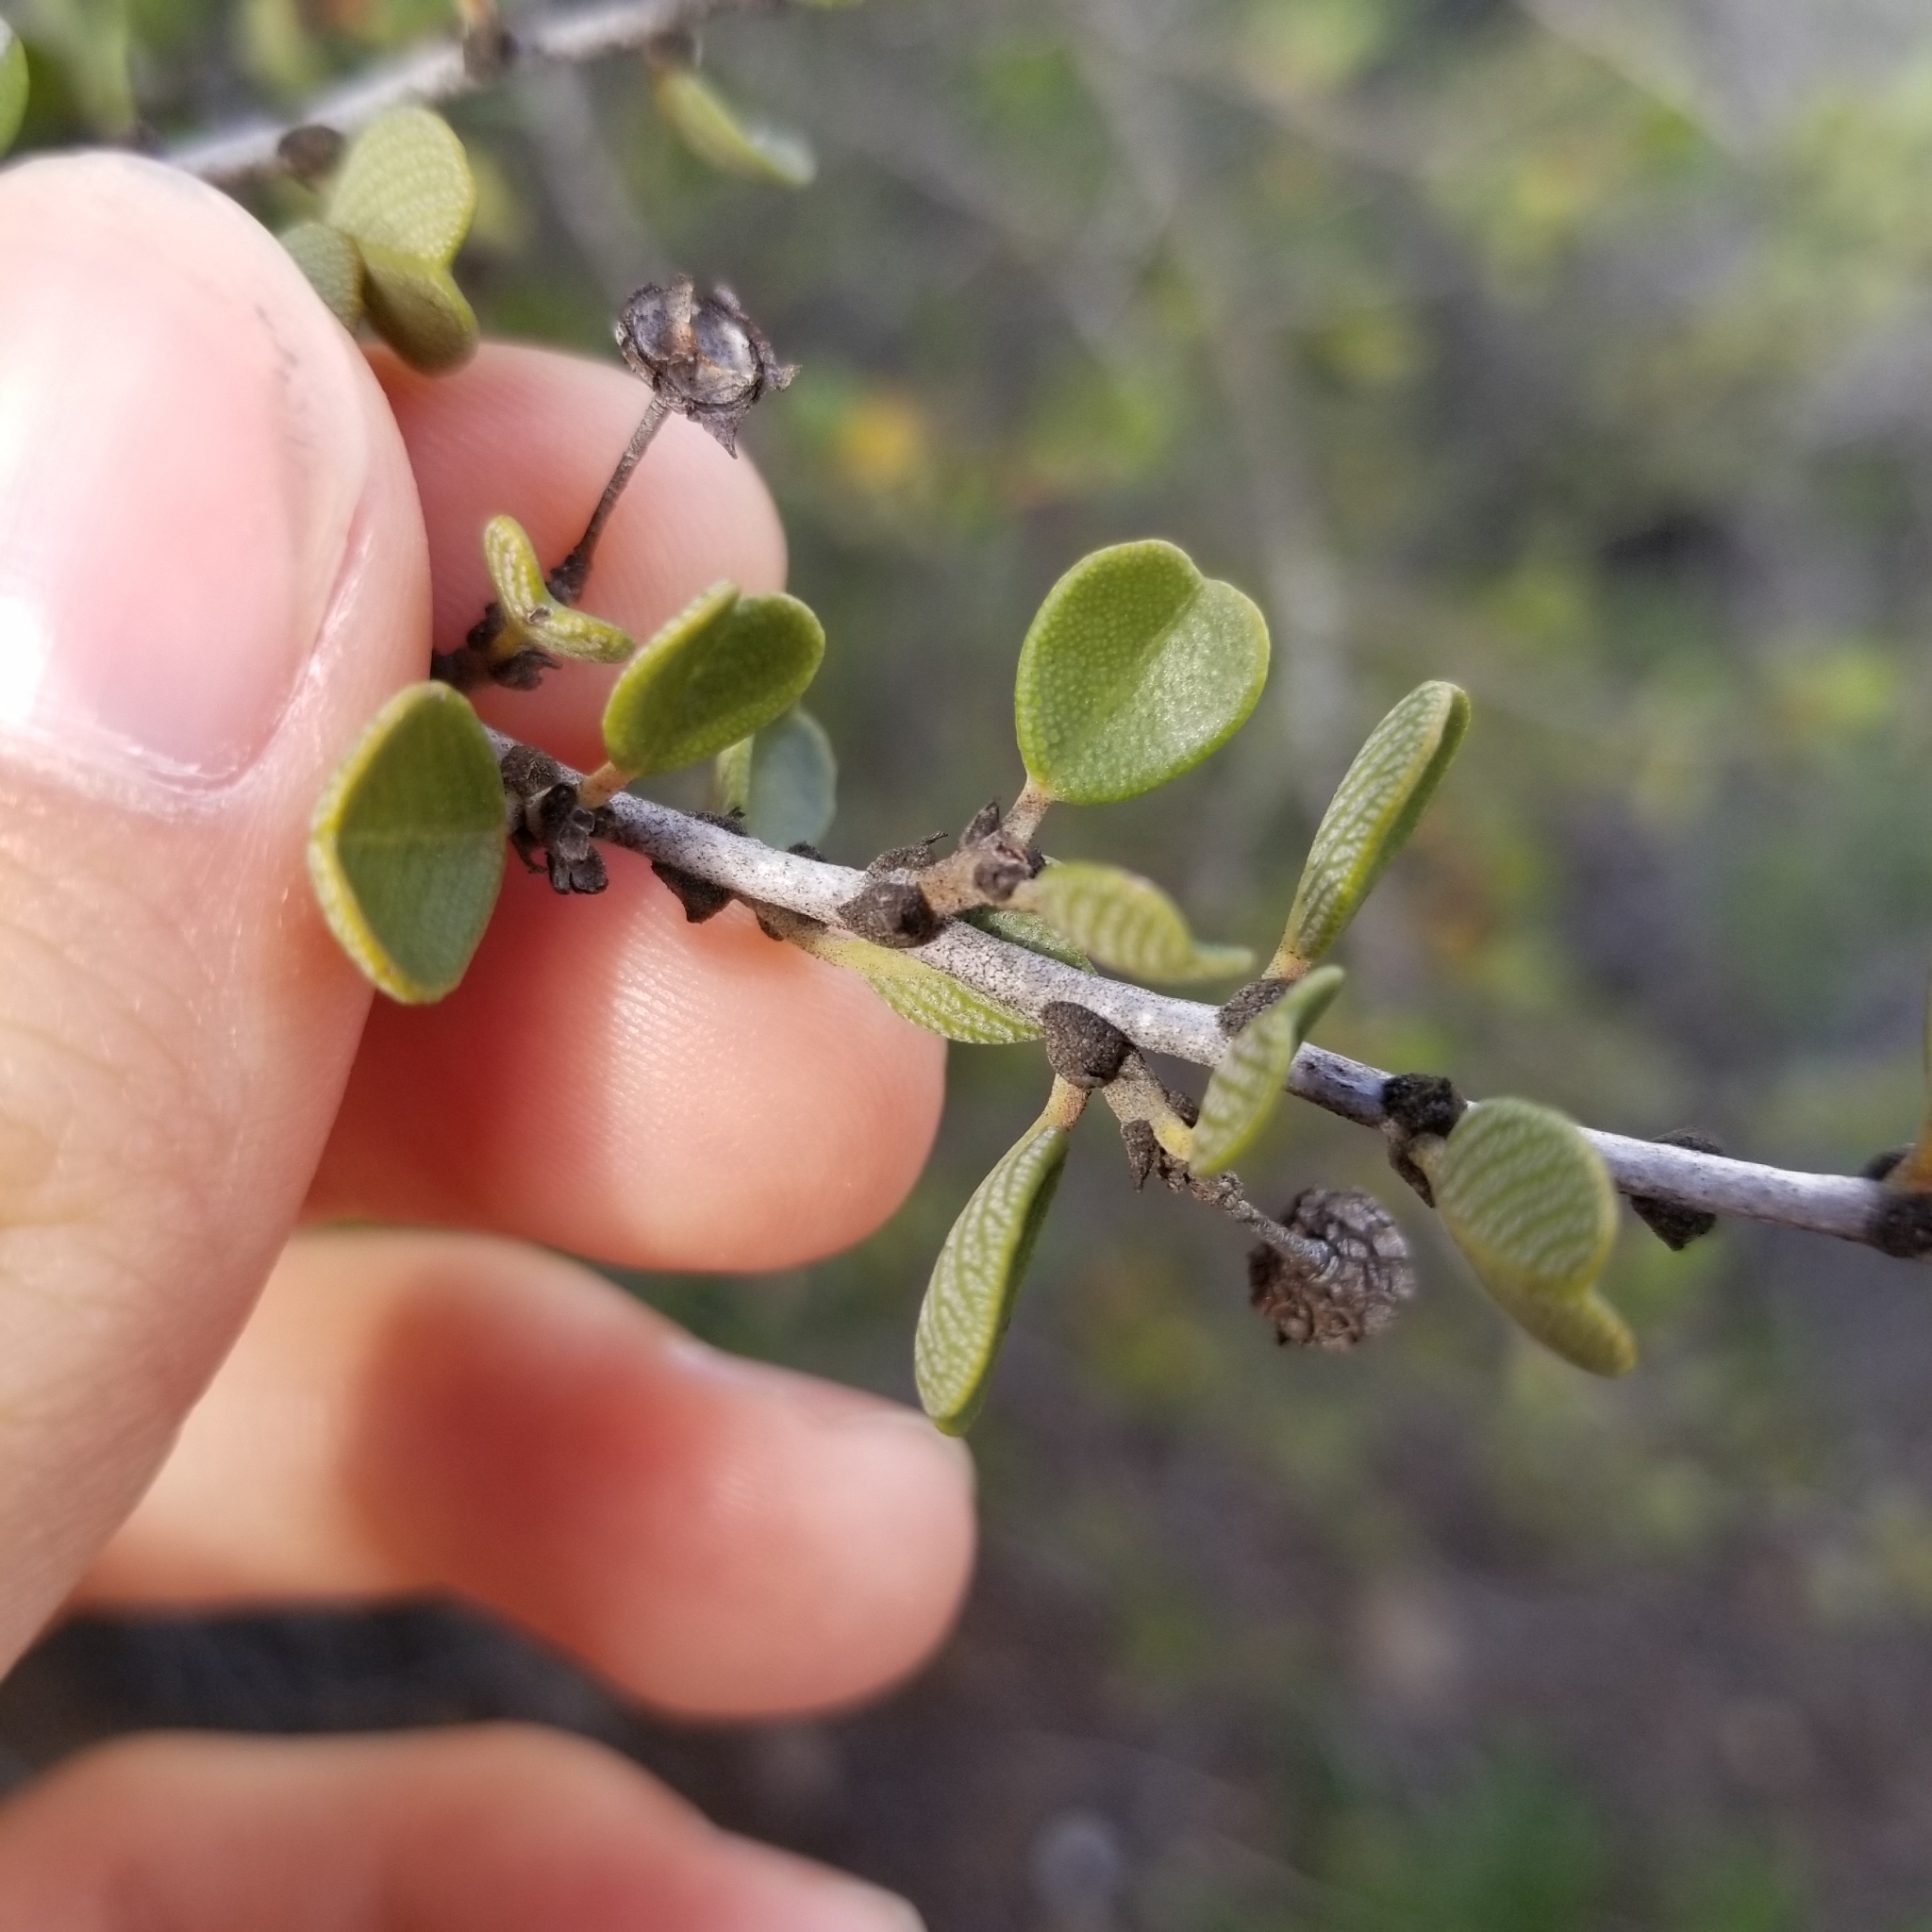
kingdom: Plantae
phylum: Tracheophyta
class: Magnoliopsida
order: Rosales
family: Rhamnaceae
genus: Ceanothus
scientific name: Ceanothus verrucosus
